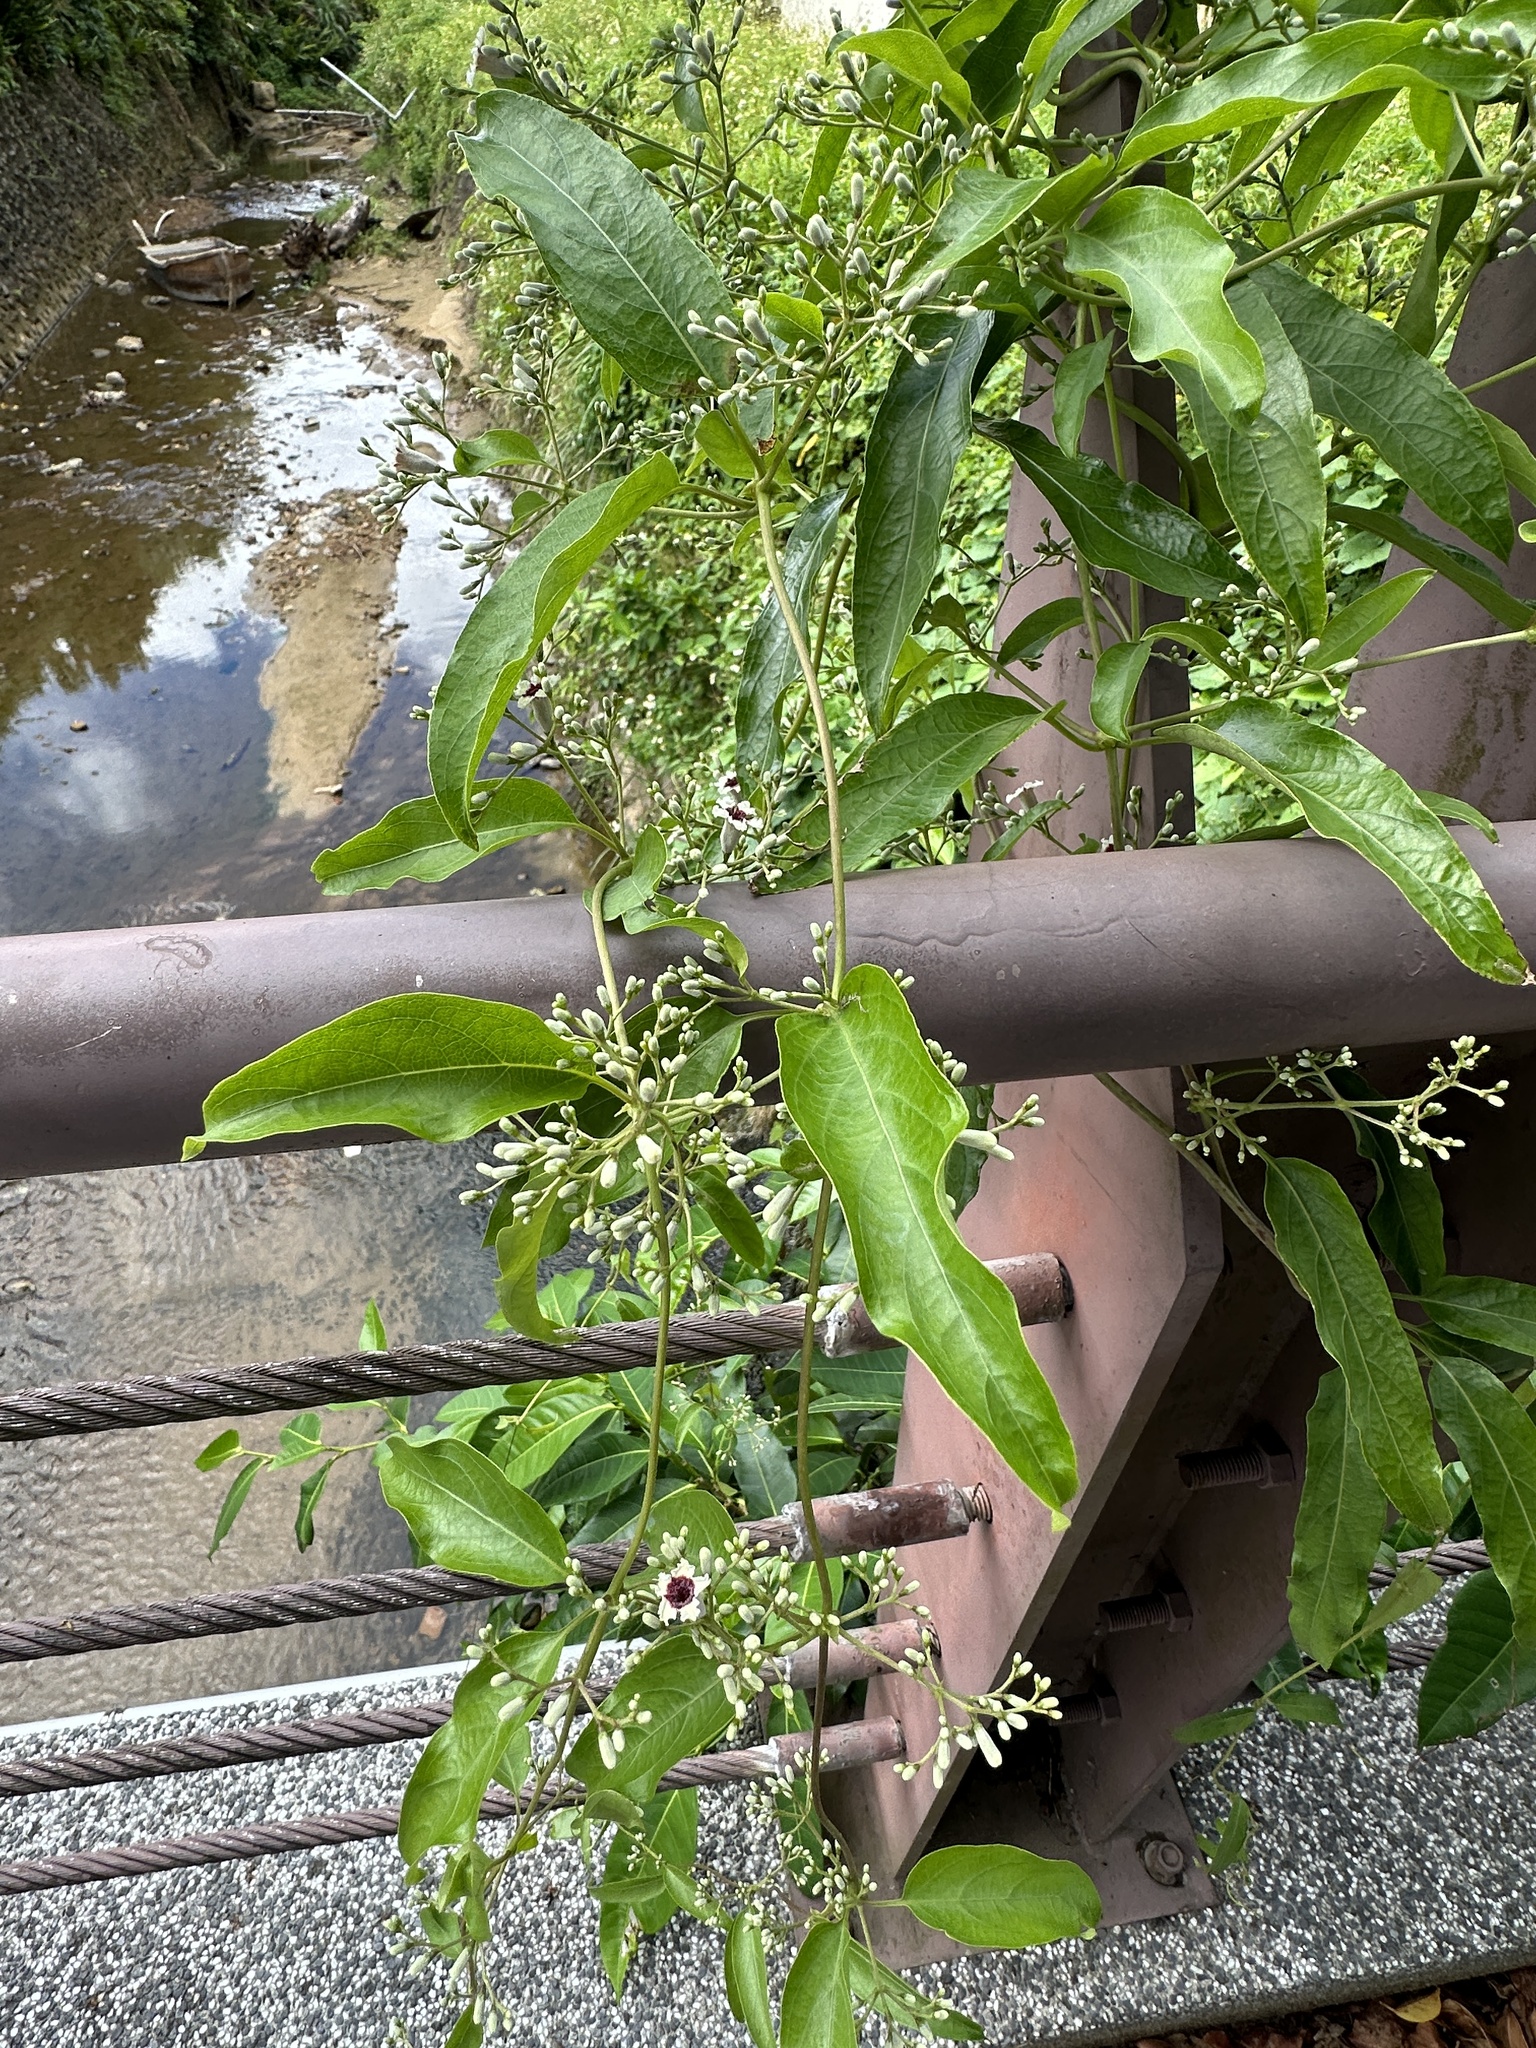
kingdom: Plantae
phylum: Tracheophyta
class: Magnoliopsida
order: Gentianales
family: Rubiaceae
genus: Paederia
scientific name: Paederia foetida
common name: Stinkvine
